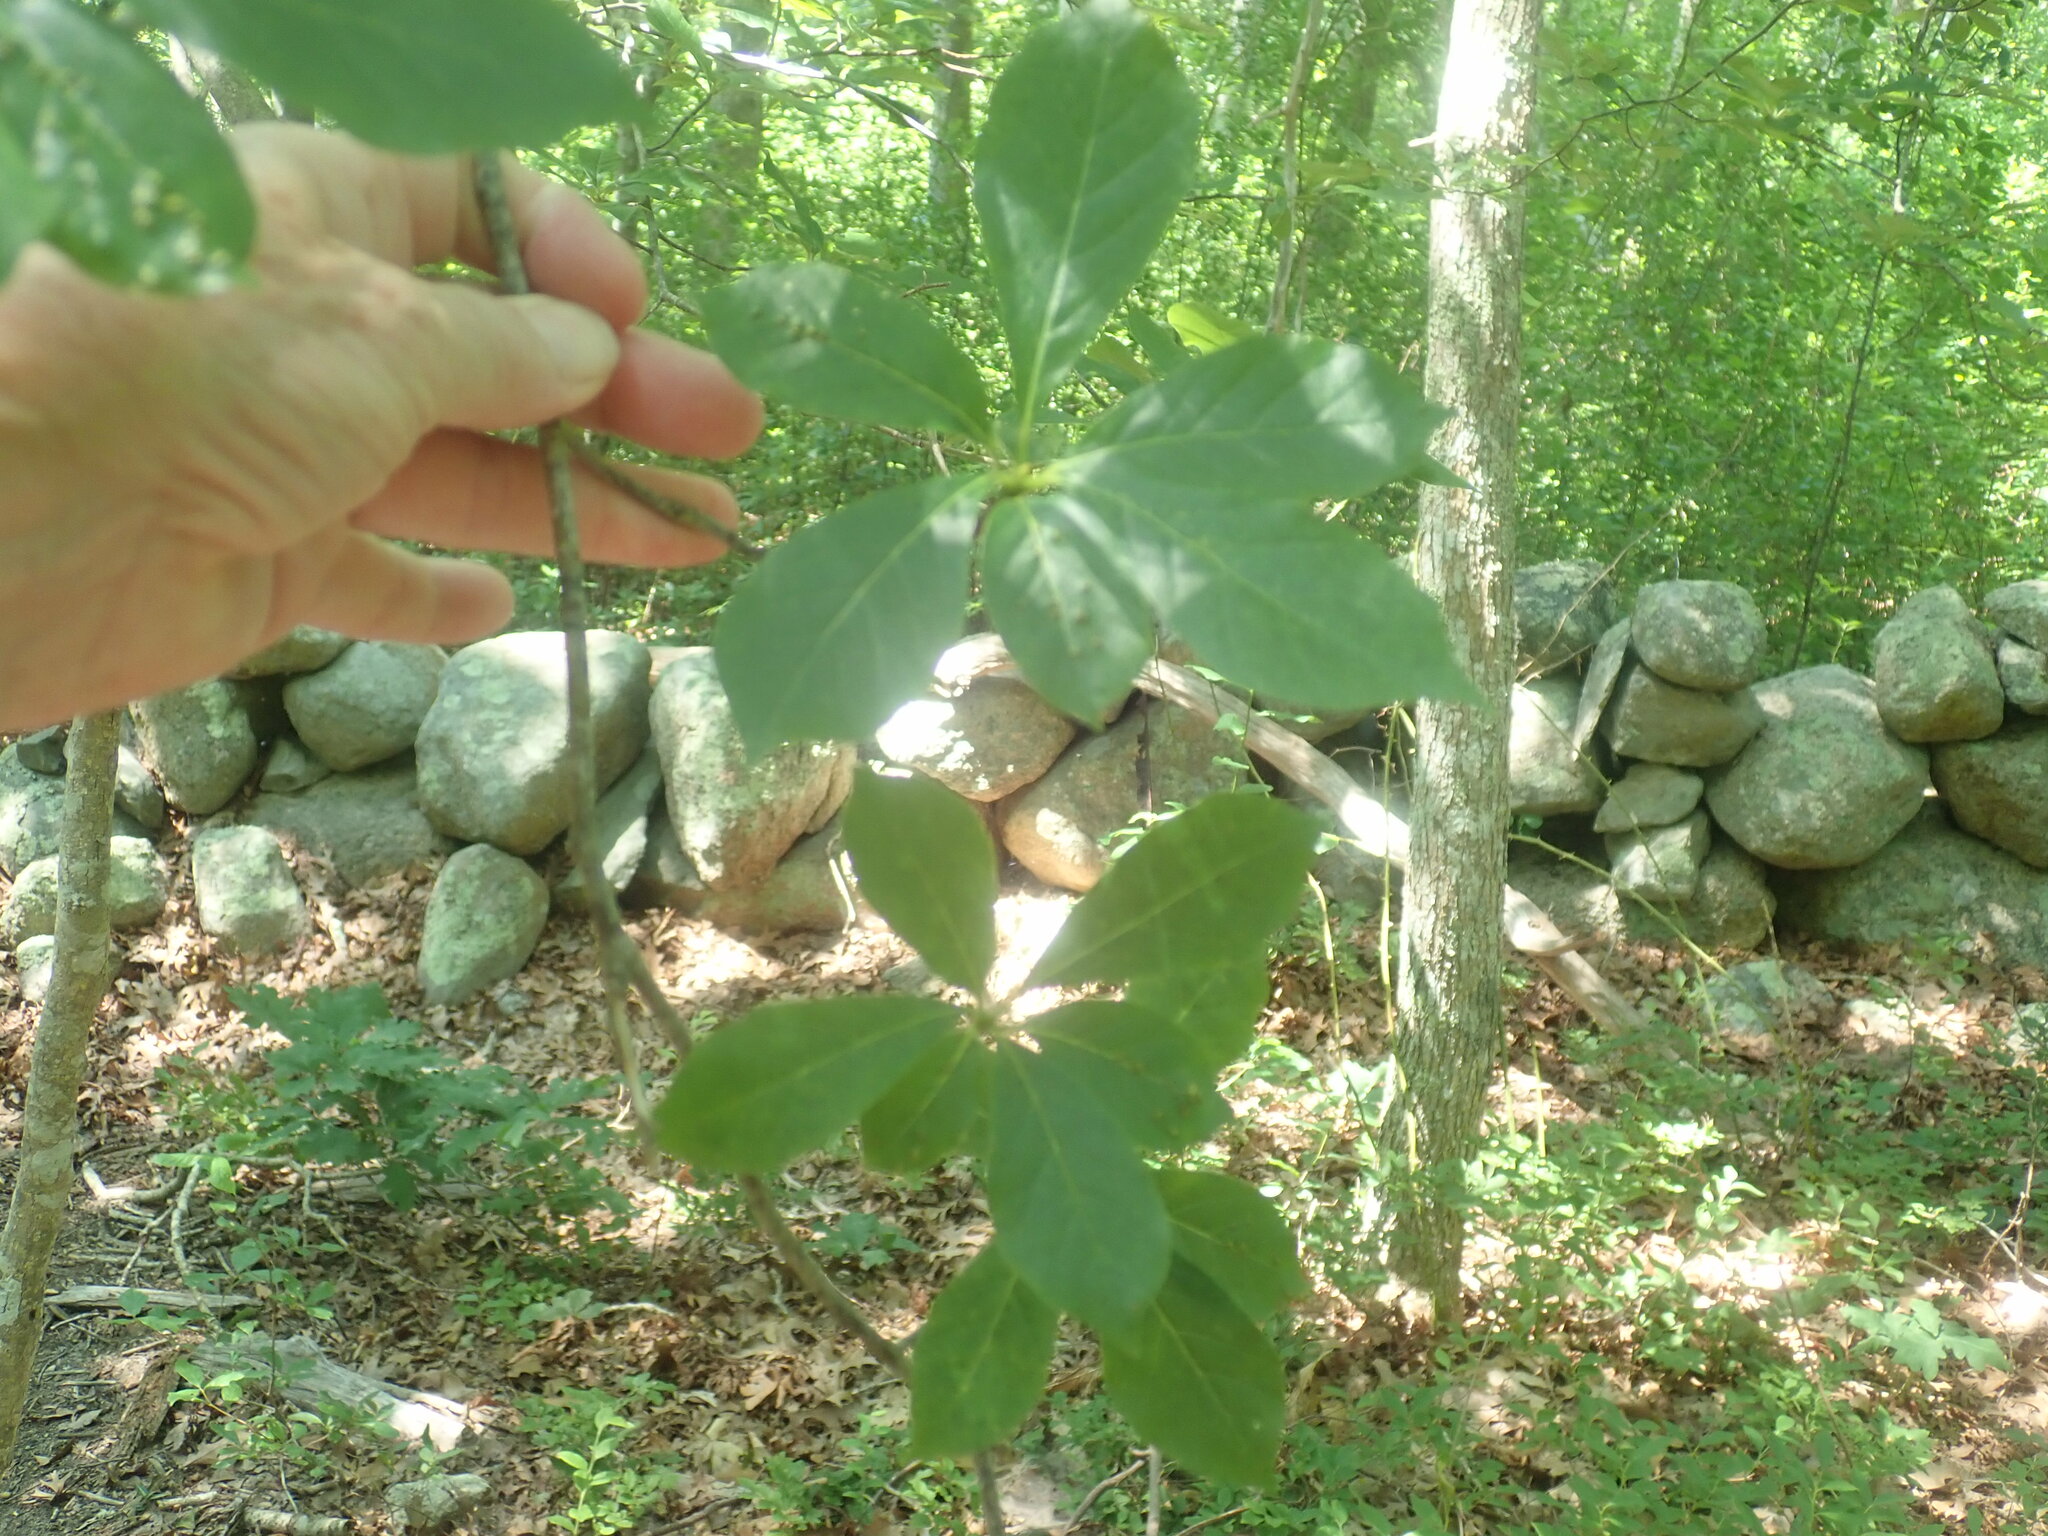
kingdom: Plantae
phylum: Tracheophyta
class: Magnoliopsida
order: Cornales
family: Nyssaceae
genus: Nyssa
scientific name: Nyssa sylvatica
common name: Black tupelo
